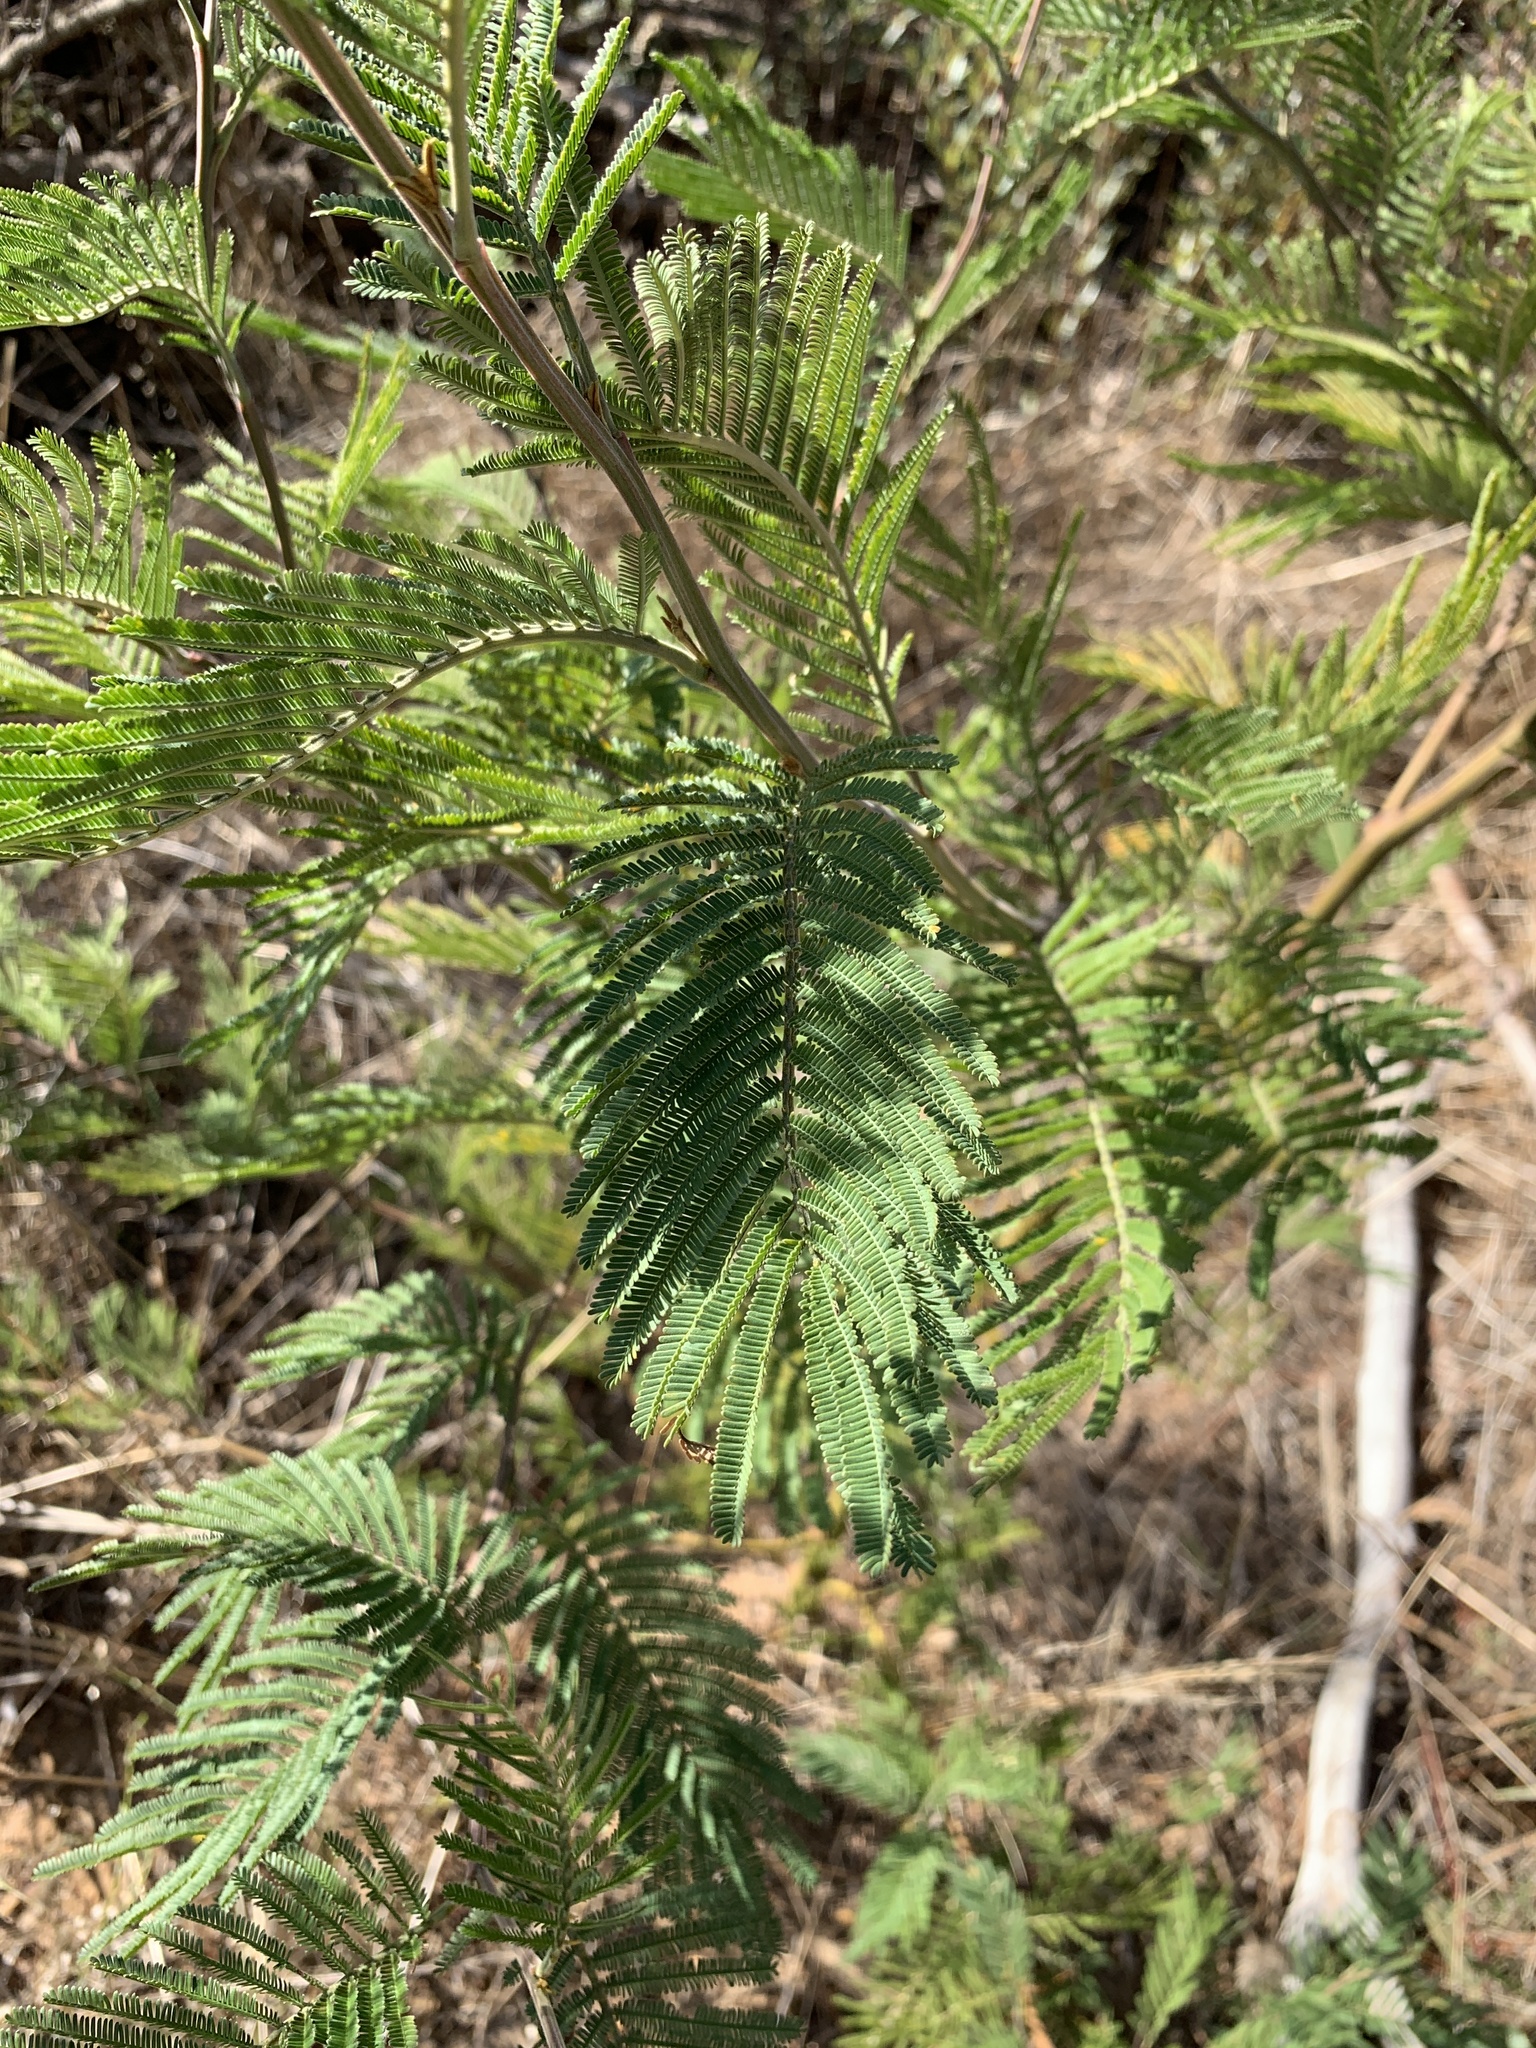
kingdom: Plantae
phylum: Tracheophyta
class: Magnoliopsida
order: Fabales
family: Fabaceae
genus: Acacia
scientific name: Acacia mearnsii
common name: Black wattle
